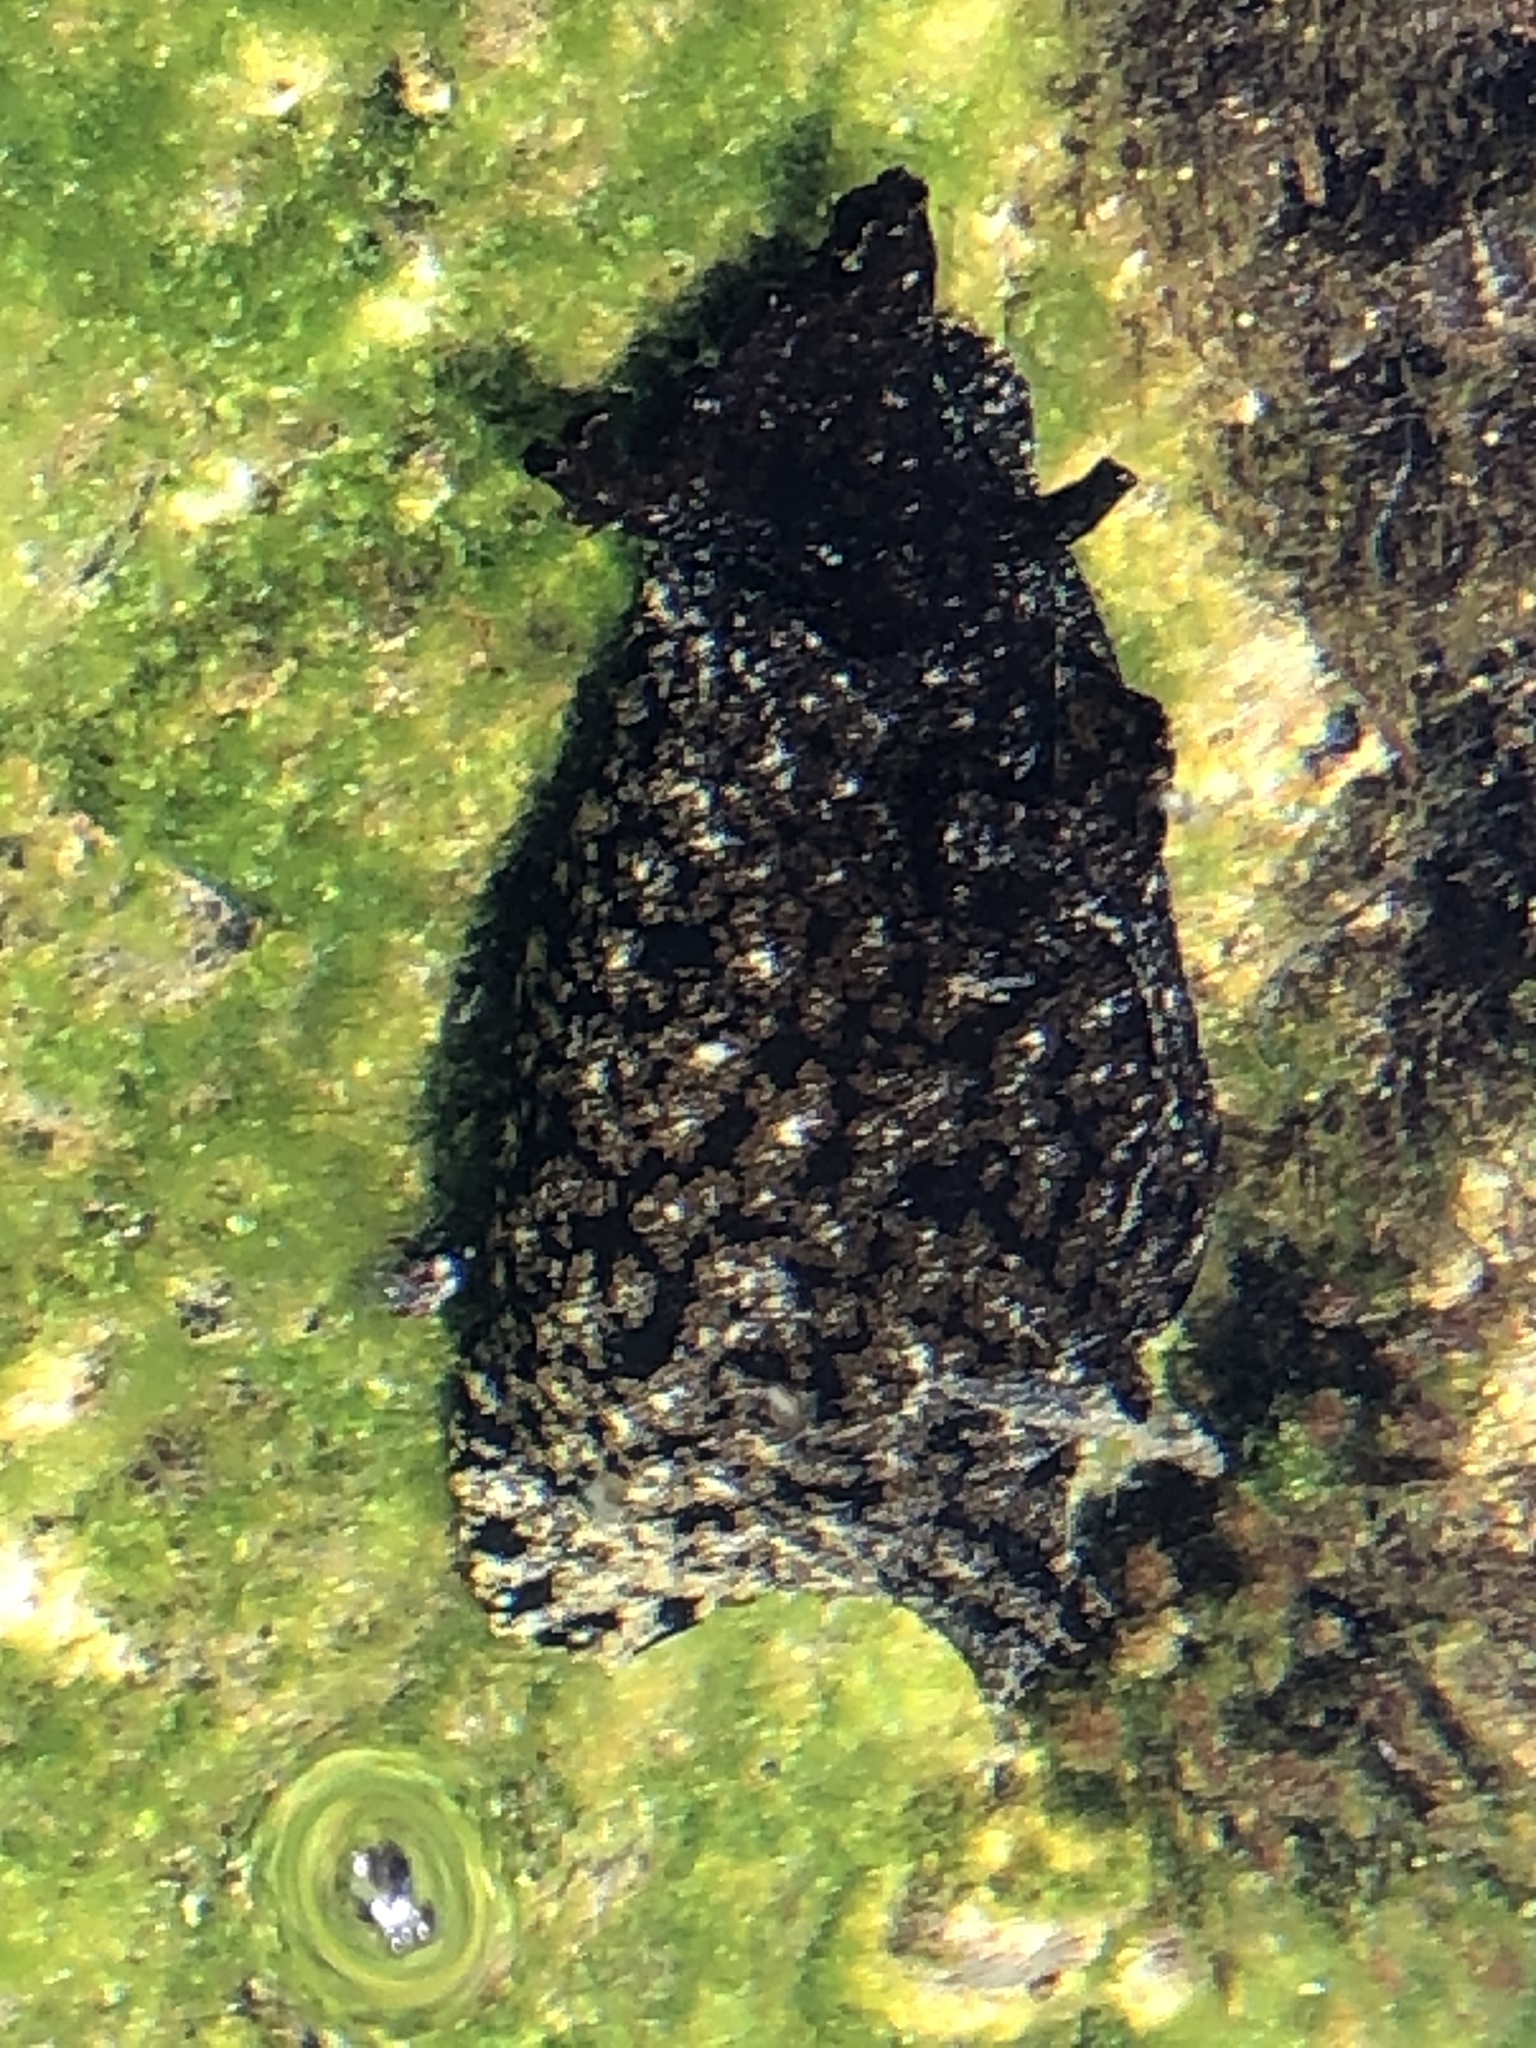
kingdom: Animalia
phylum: Mollusca
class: Gastropoda
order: Aplysiida
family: Aplysiidae
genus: Aplysia
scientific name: Aplysia californica
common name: California seahare
